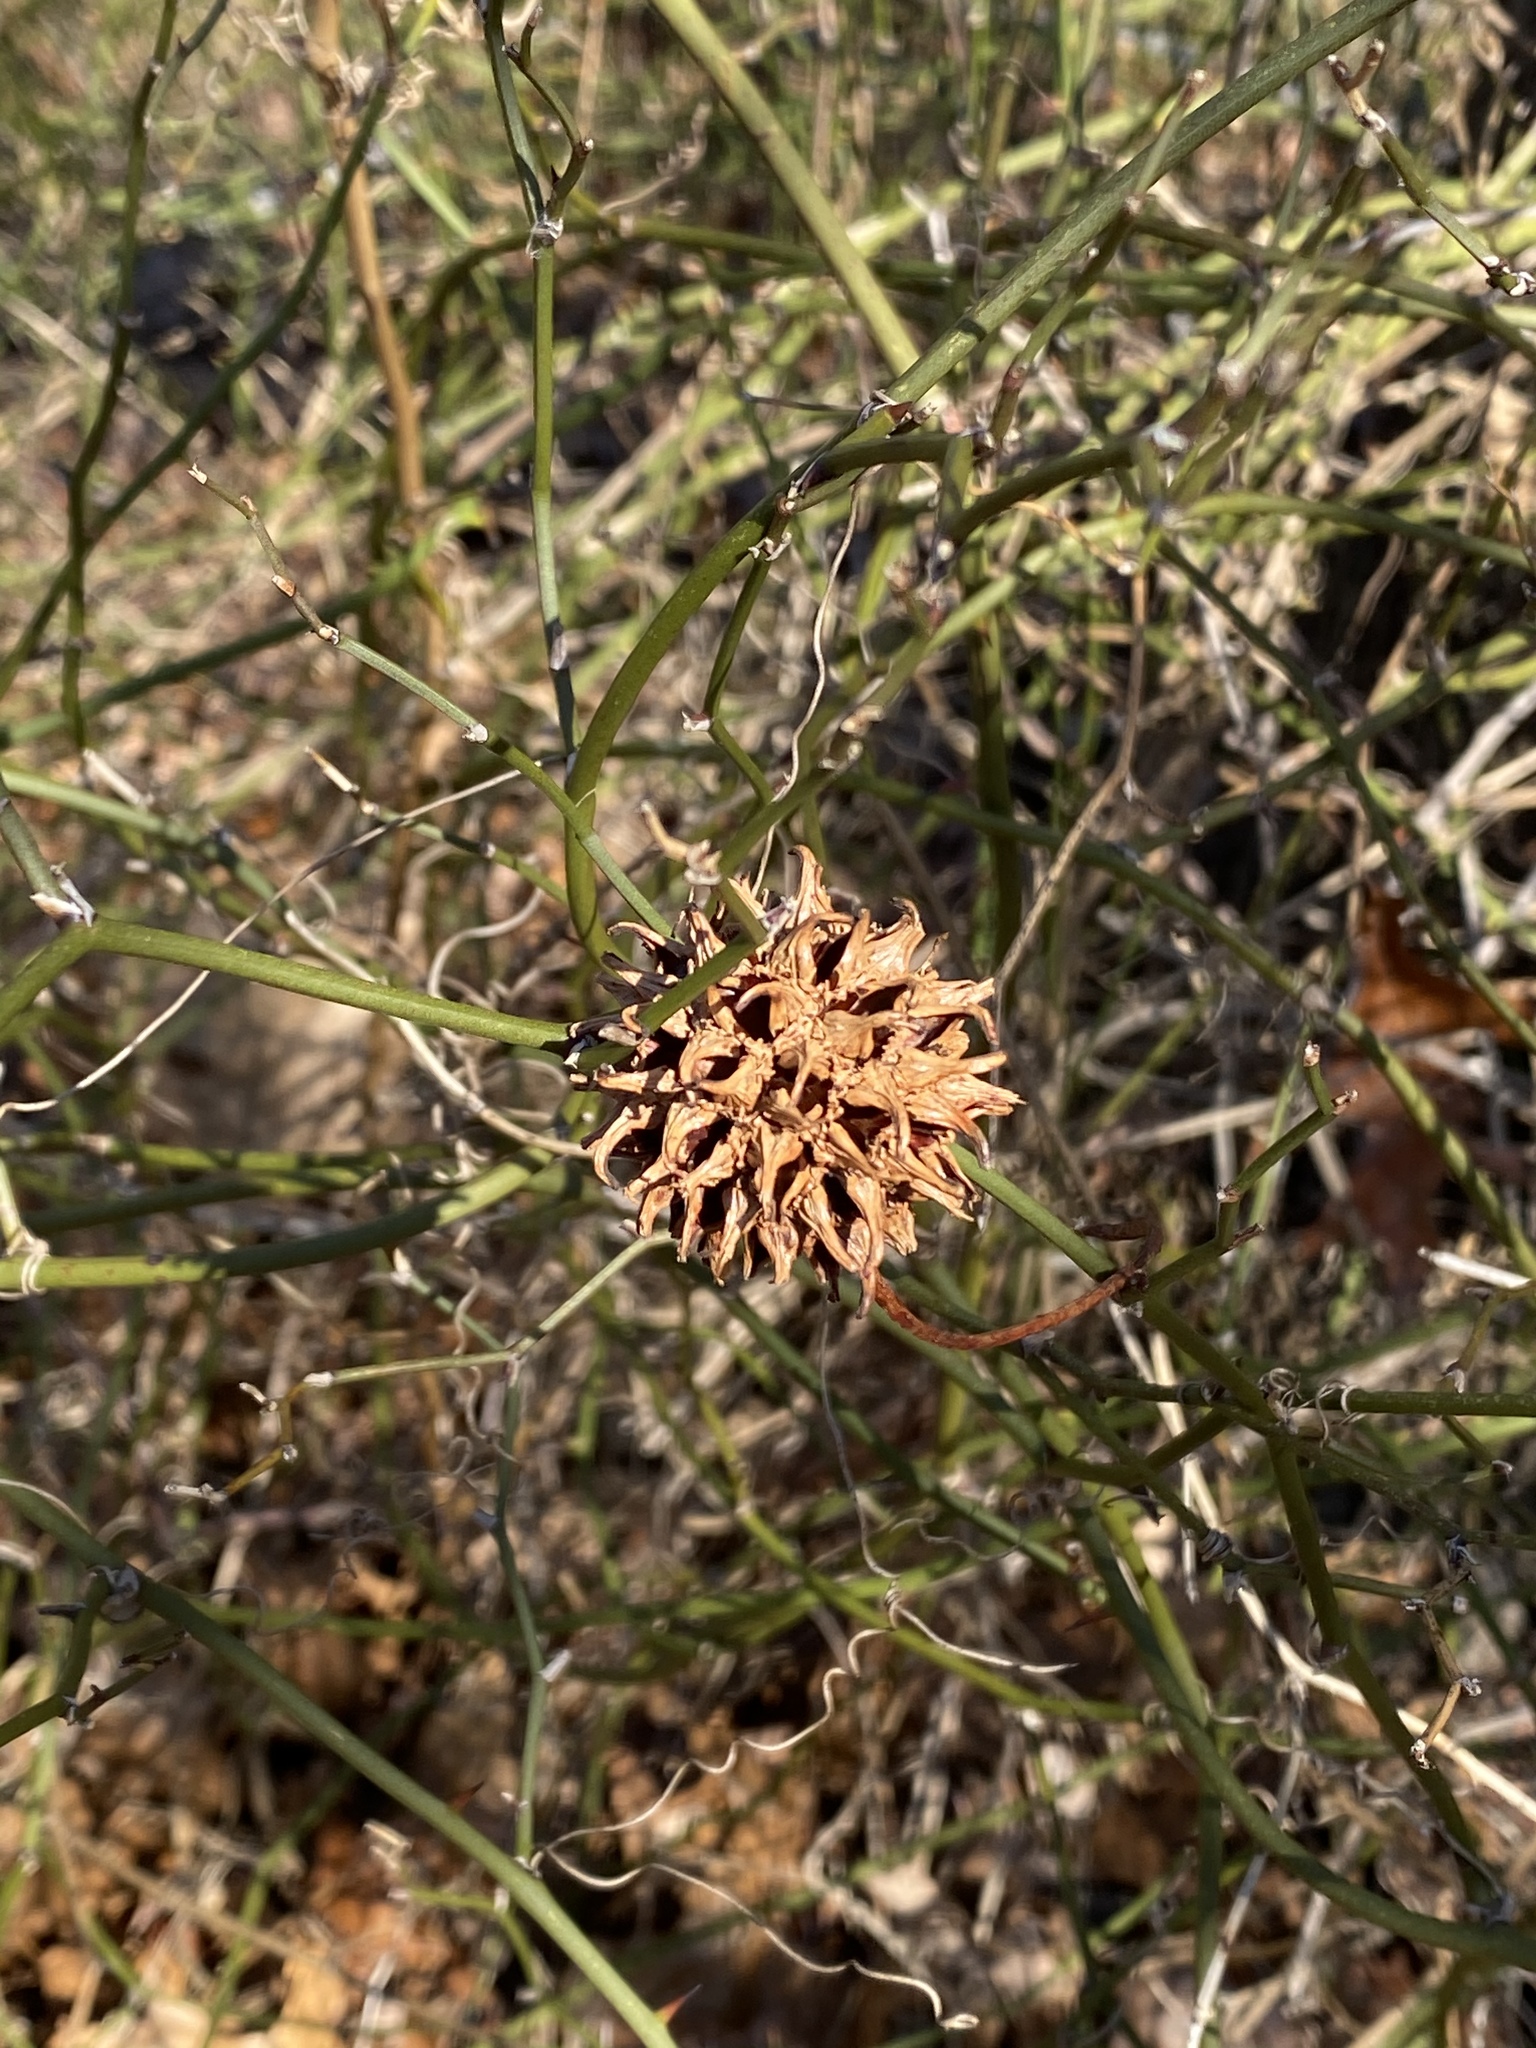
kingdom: Plantae
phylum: Tracheophyta
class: Magnoliopsida
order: Saxifragales
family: Altingiaceae
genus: Liquidambar
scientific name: Liquidambar styraciflua
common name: Sweet gum
